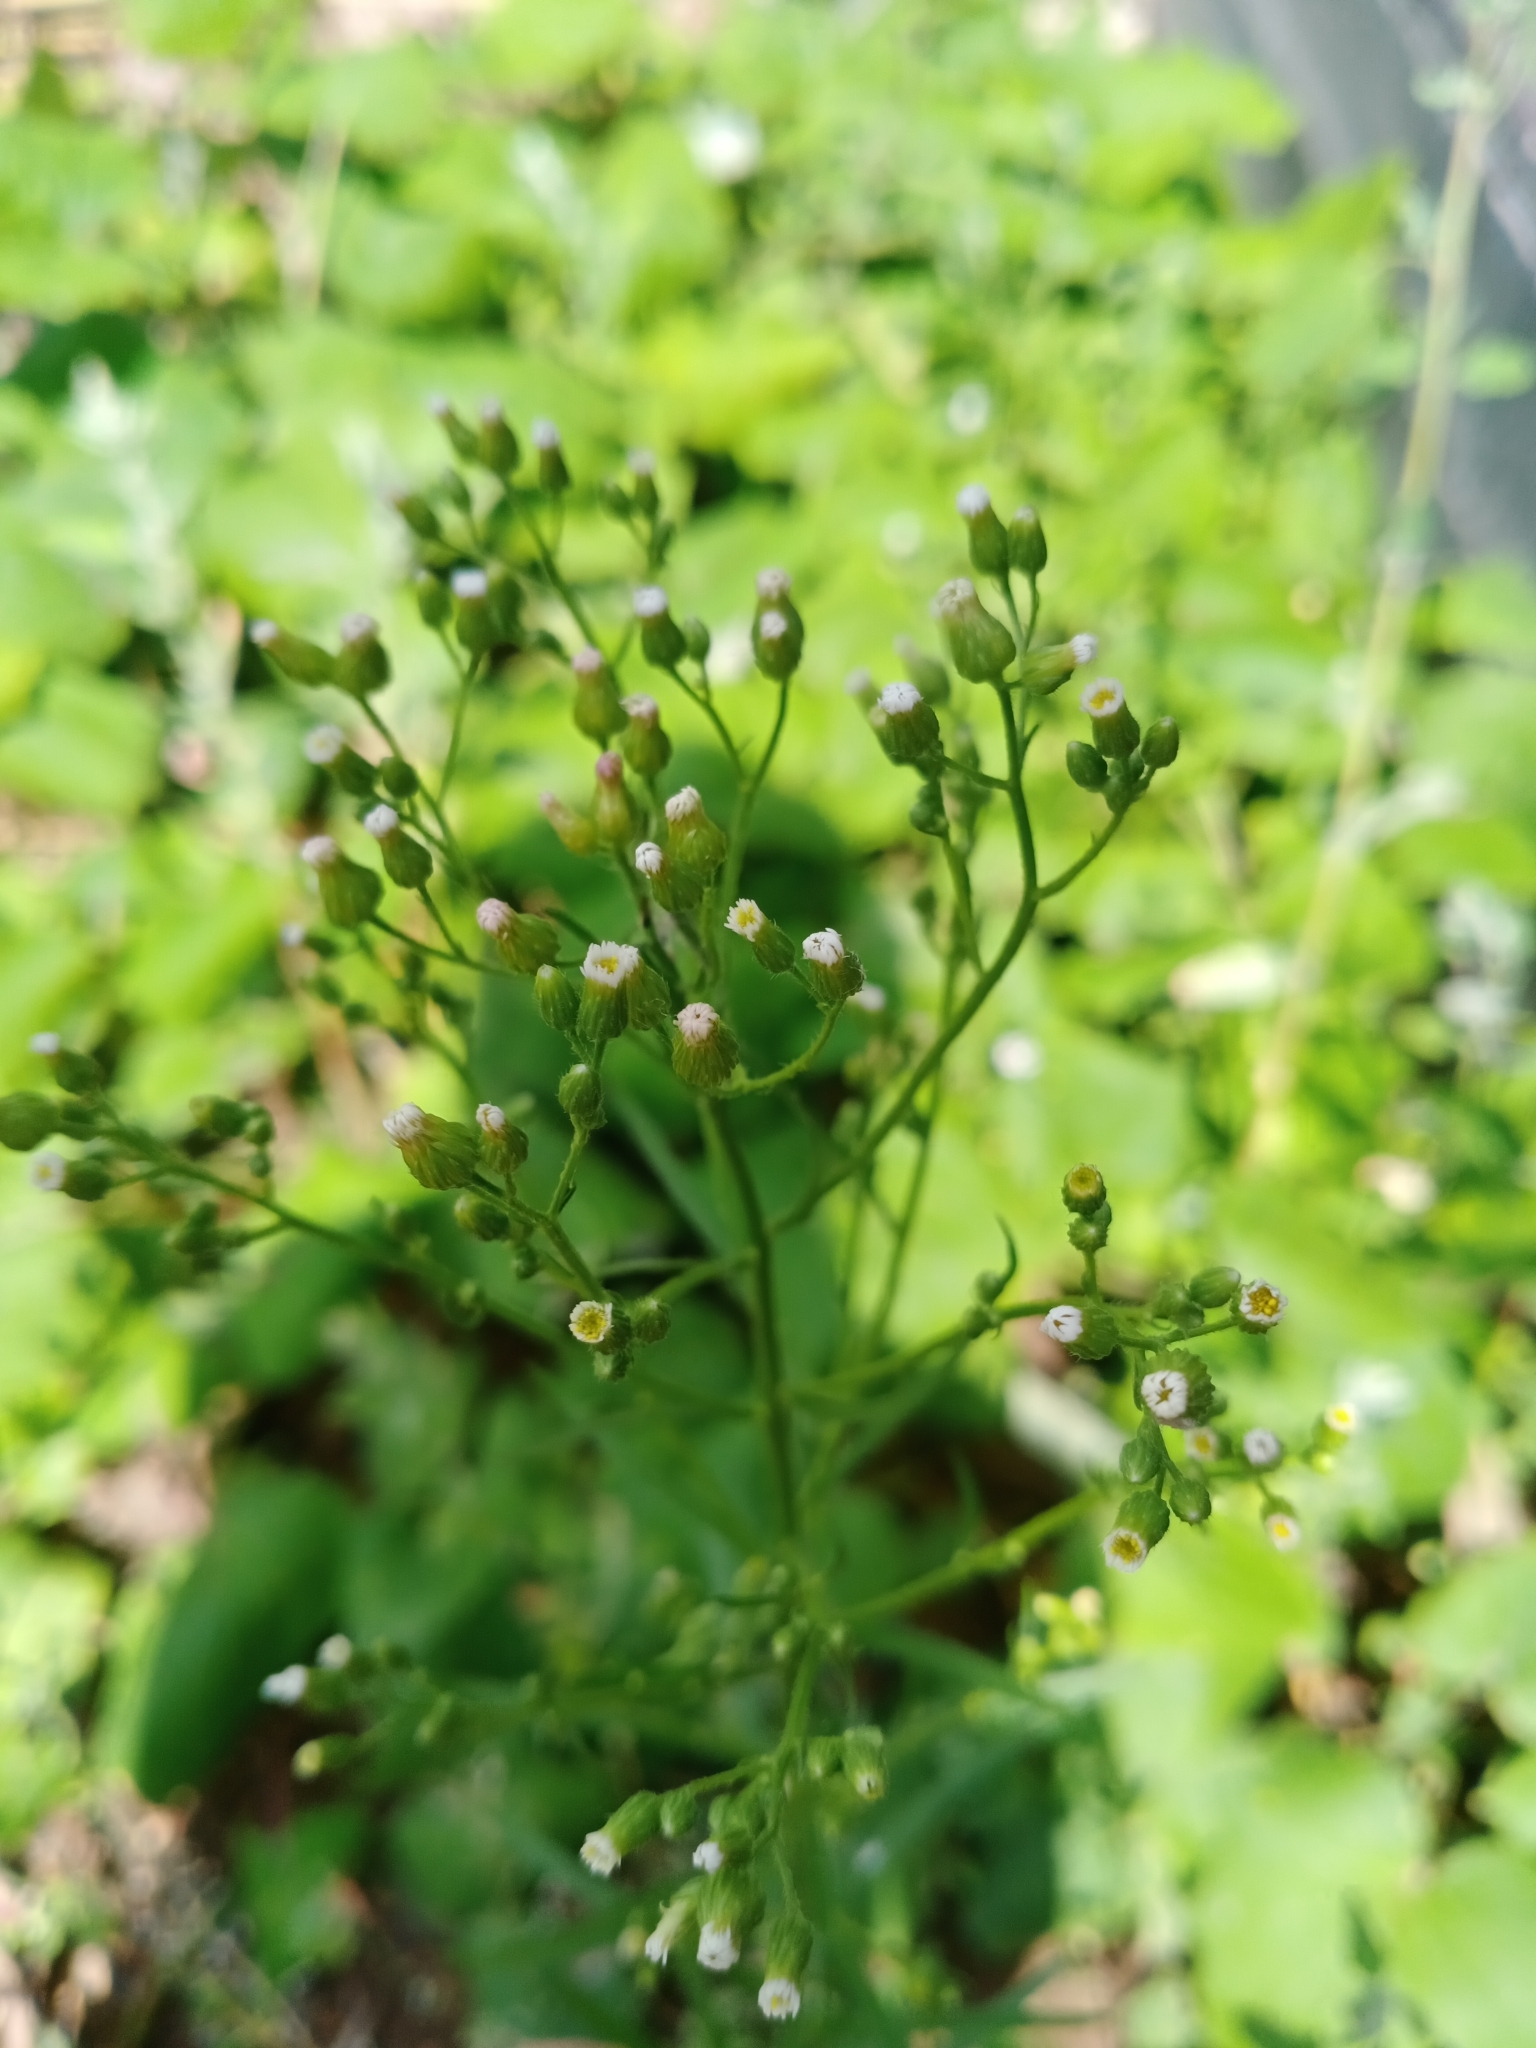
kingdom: Plantae
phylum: Tracheophyta
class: Magnoliopsida
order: Asterales
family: Asteraceae
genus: Erigeron
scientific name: Erigeron canadensis
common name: Canadian fleabane
